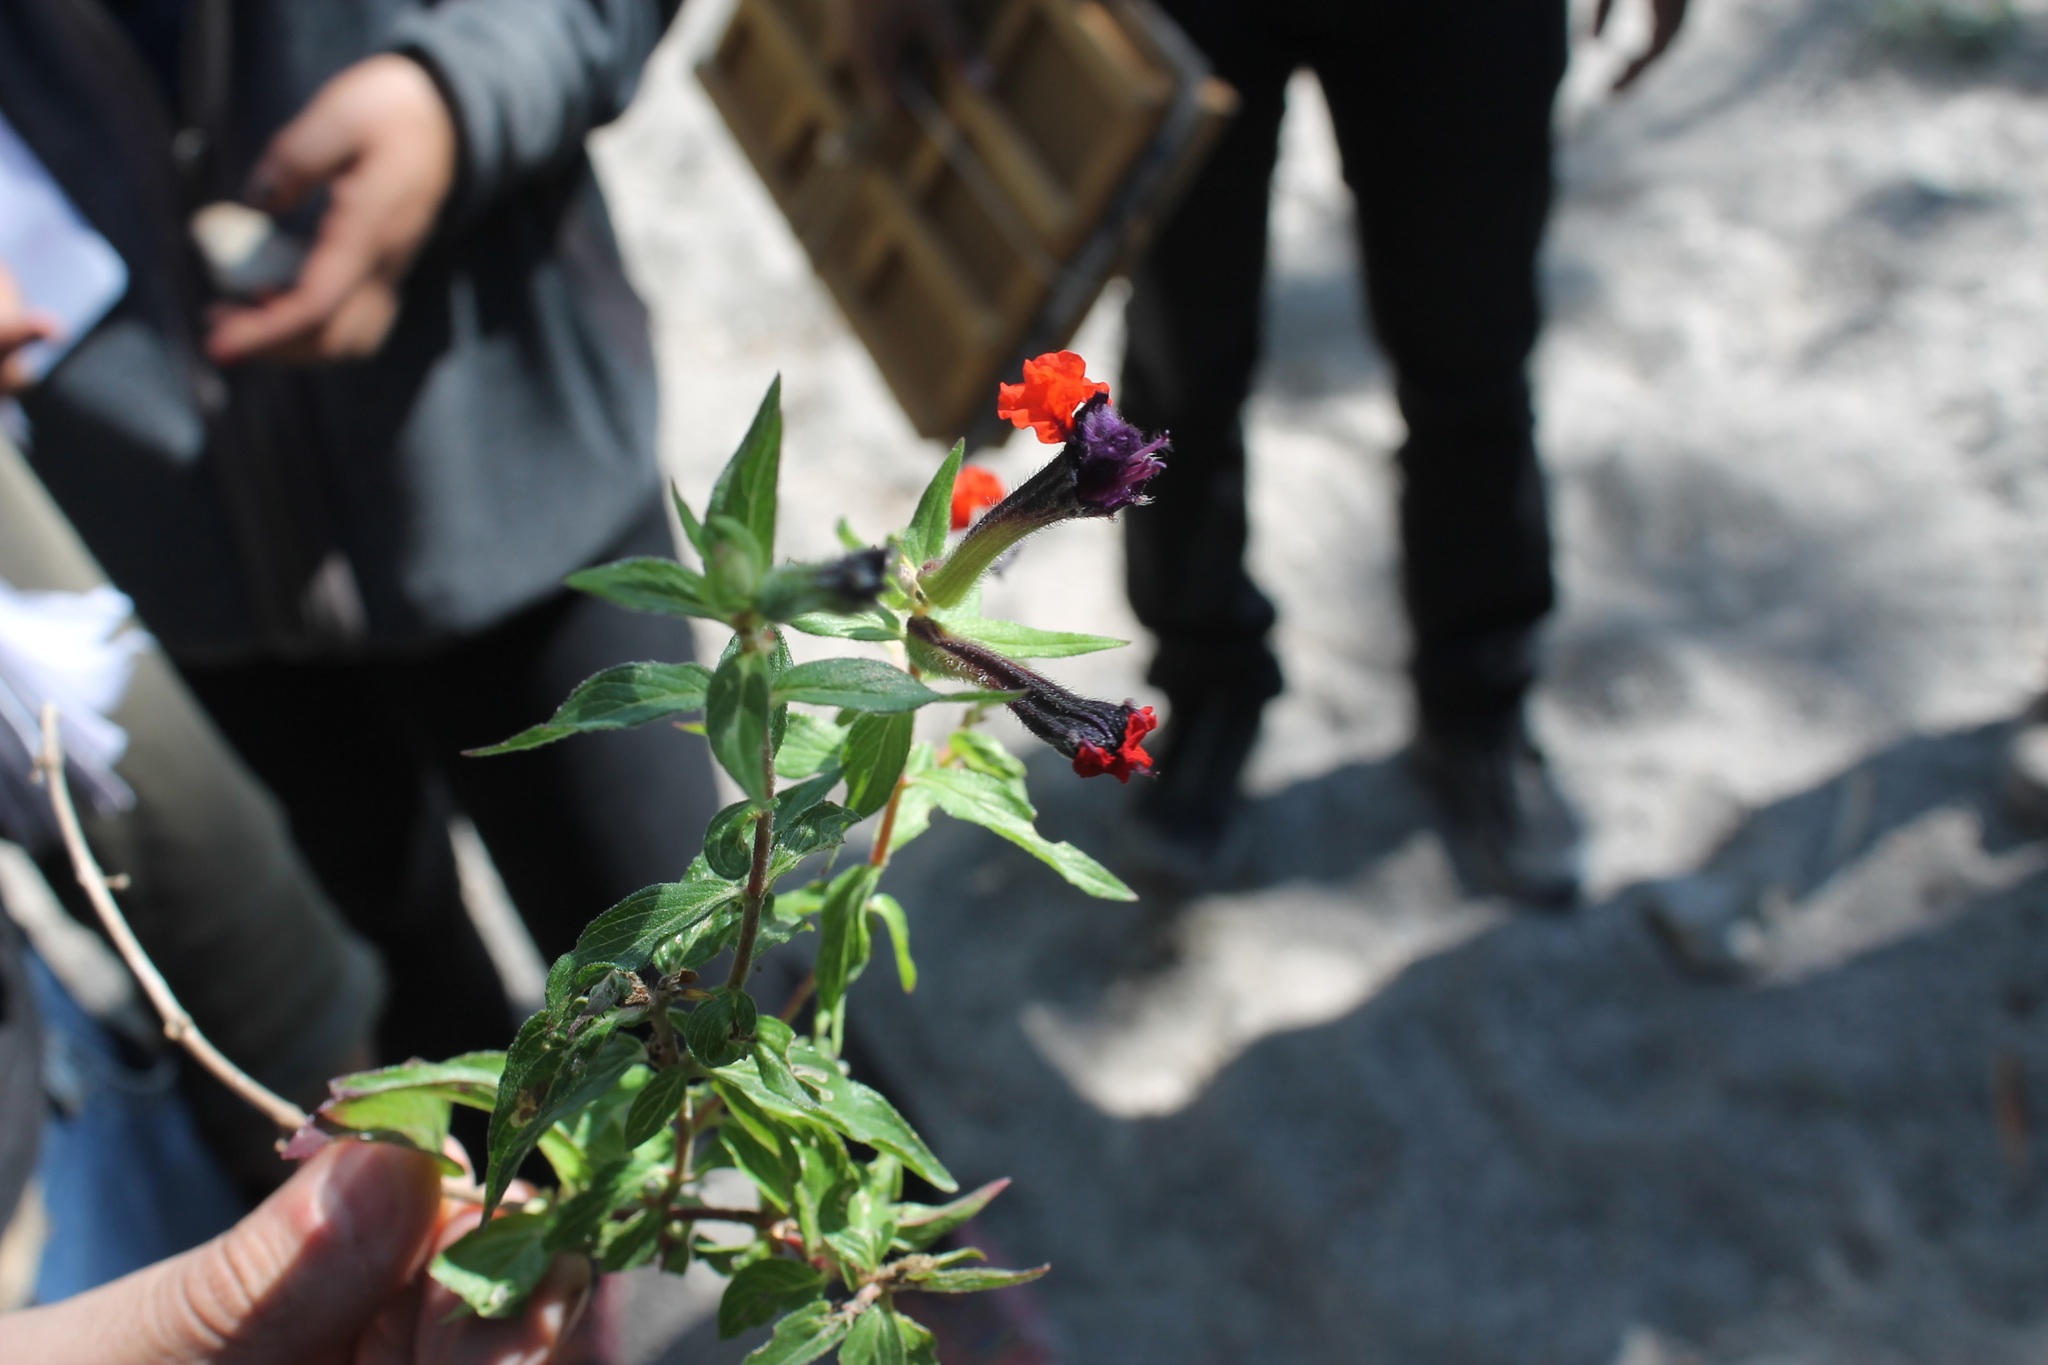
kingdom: Plantae
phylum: Tracheophyta
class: Magnoliopsida
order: Myrtales
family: Lythraceae
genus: Cuphea
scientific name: Cuphea llavea
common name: Tiny-mice
